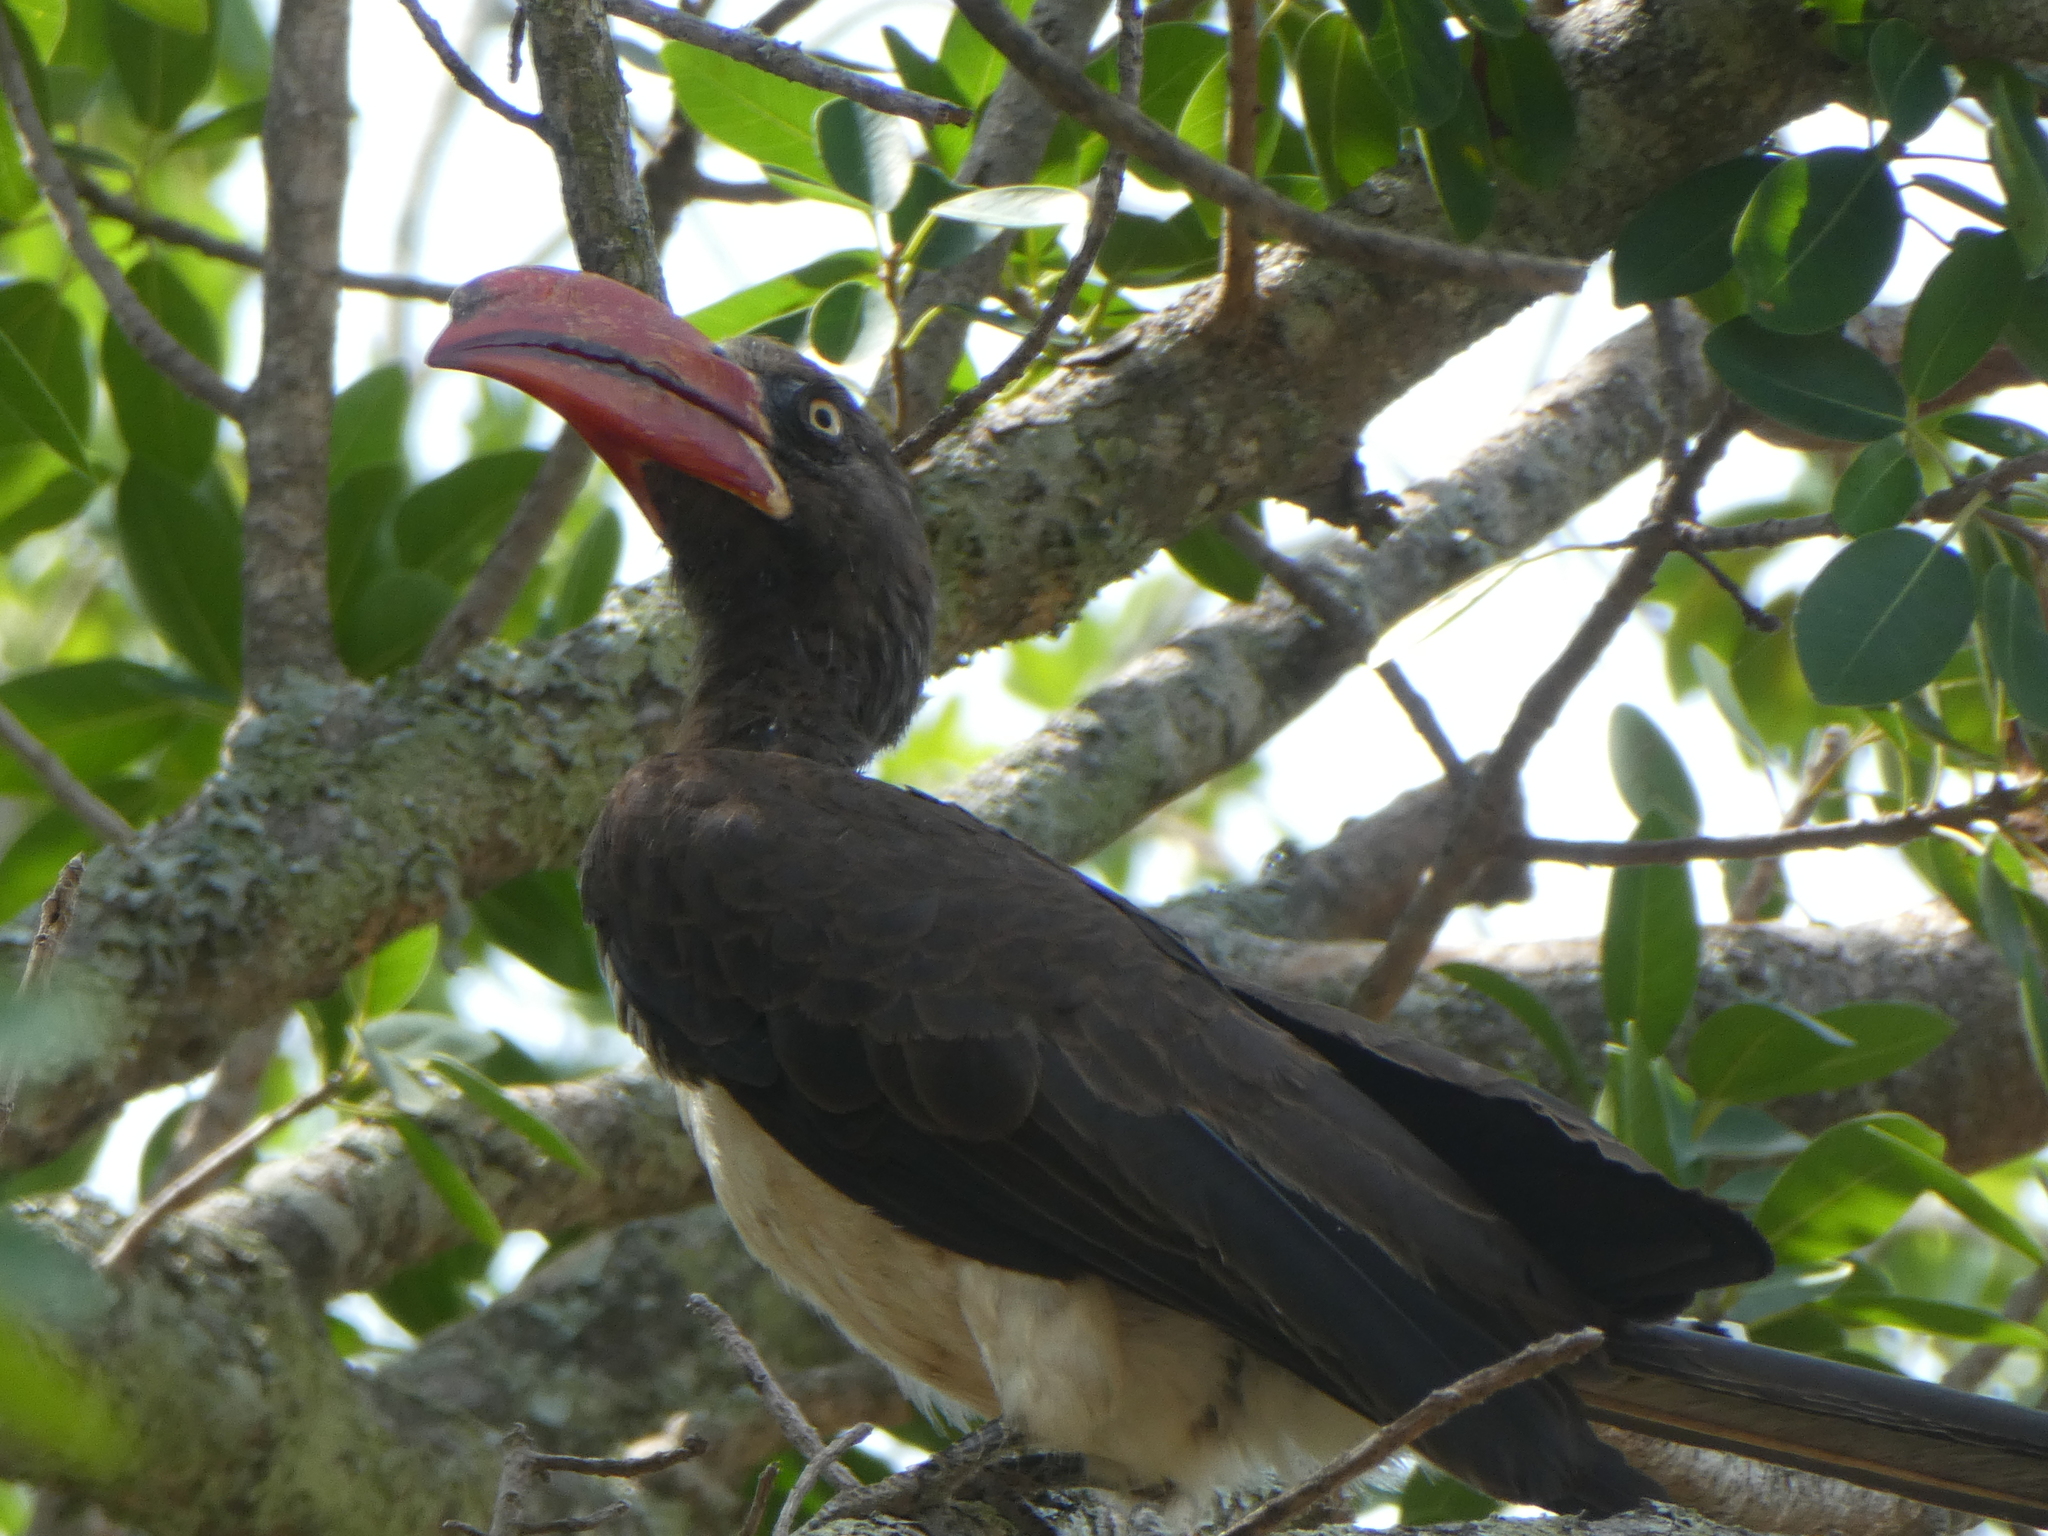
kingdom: Animalia
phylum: Chordata
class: Aves
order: Bucerotiformes
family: Bucerotidae
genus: Lophoceros
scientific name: Lophoceros alboterminatus
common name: Crowned hornbill
